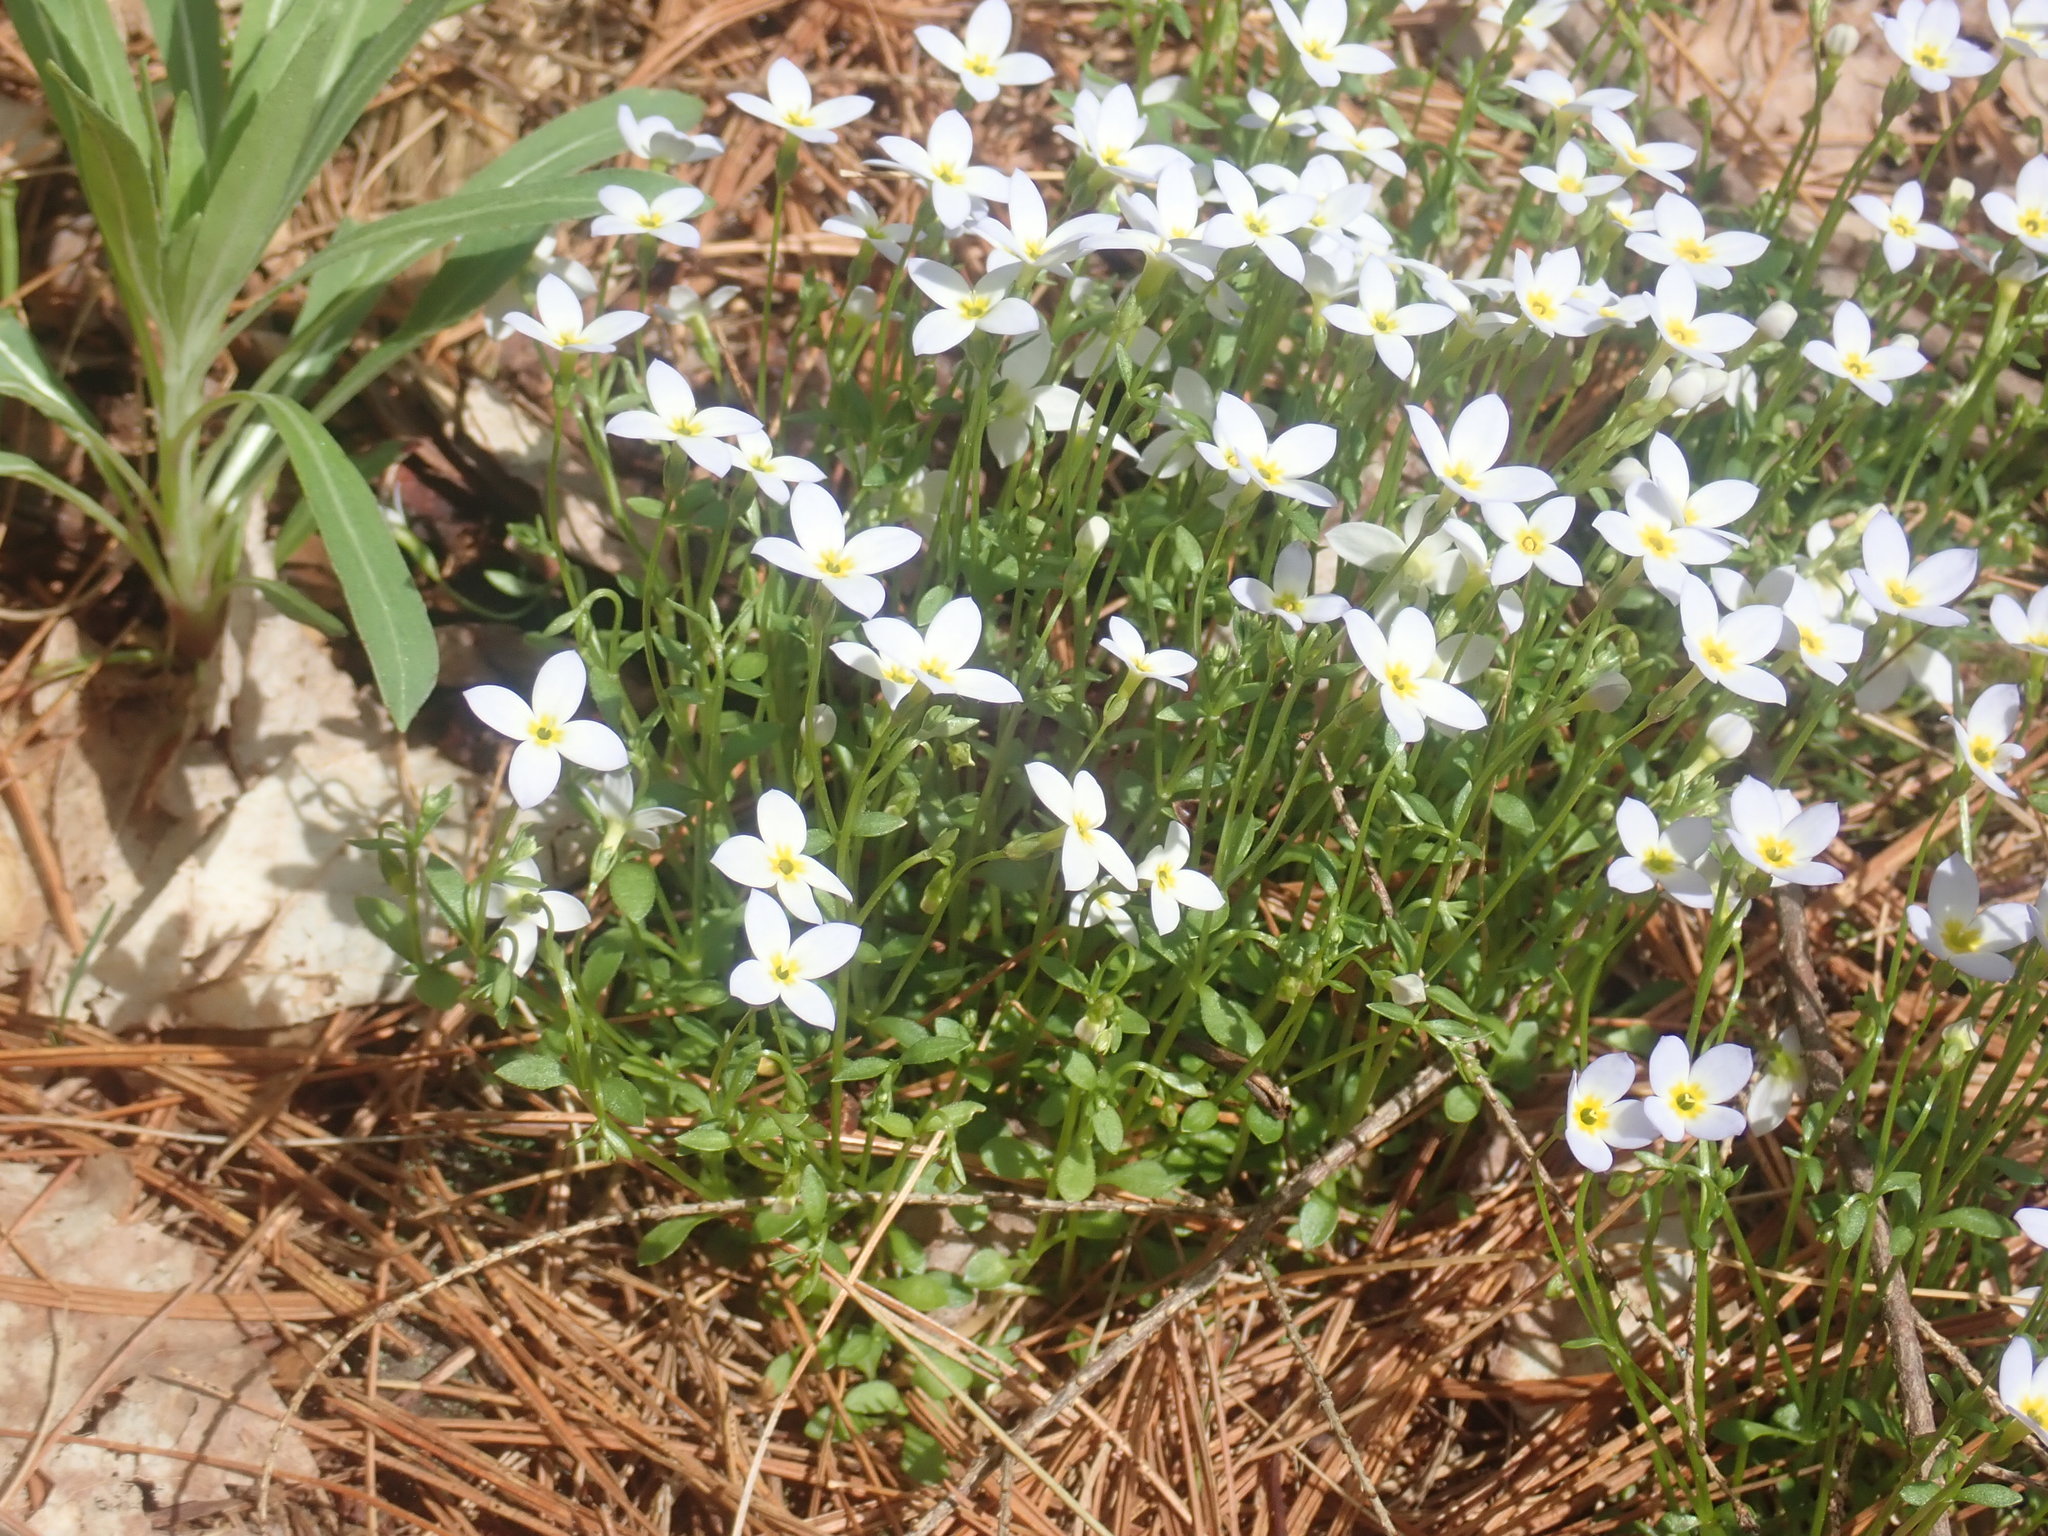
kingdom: Plantae
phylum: Tracheophyta
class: Magnoliopsida
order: Gentianales
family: Rubiaceae
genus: Houstonia
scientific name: Houstonia caerulea
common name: Bluets
